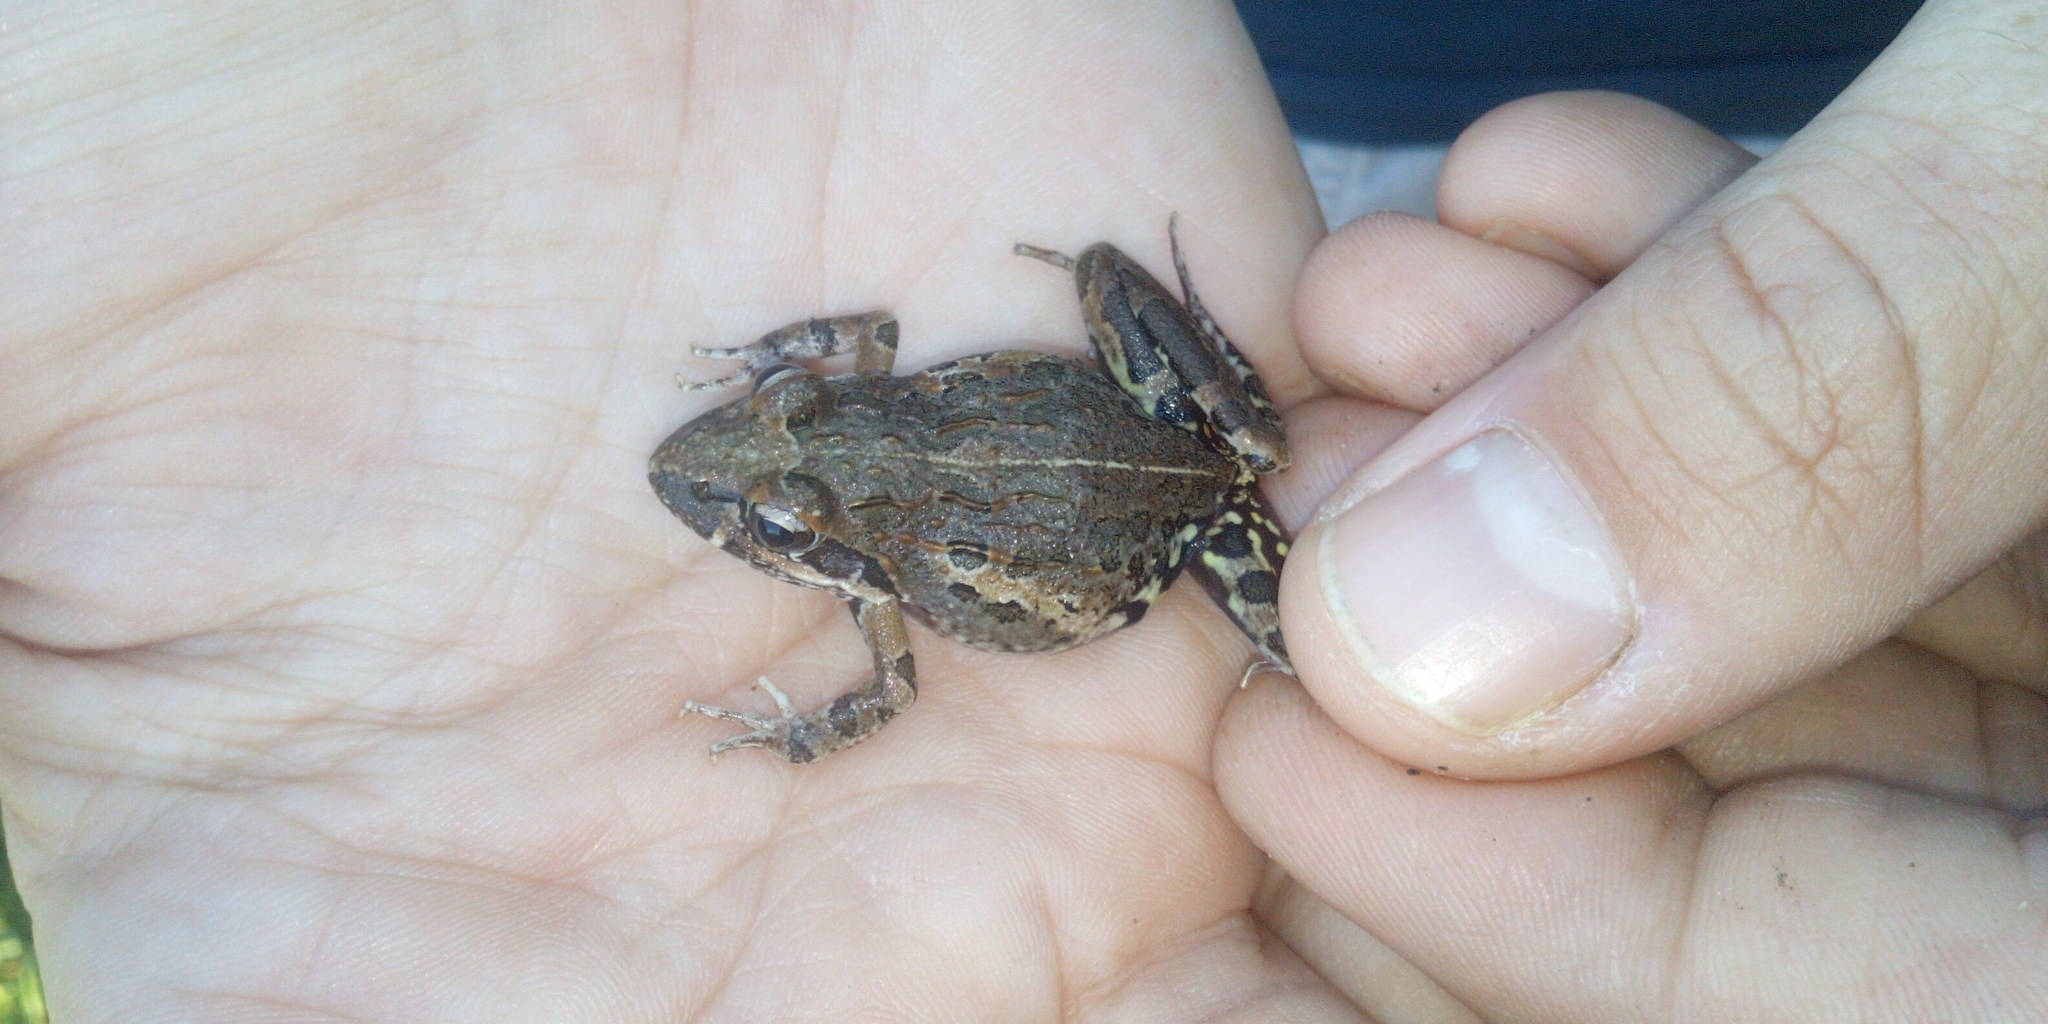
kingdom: Animalia
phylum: Chordata
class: Amphibia
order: Anura
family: Pyxicephalidae
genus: Strongylopus
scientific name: Strongylopus grayii
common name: Gray's stream frog
